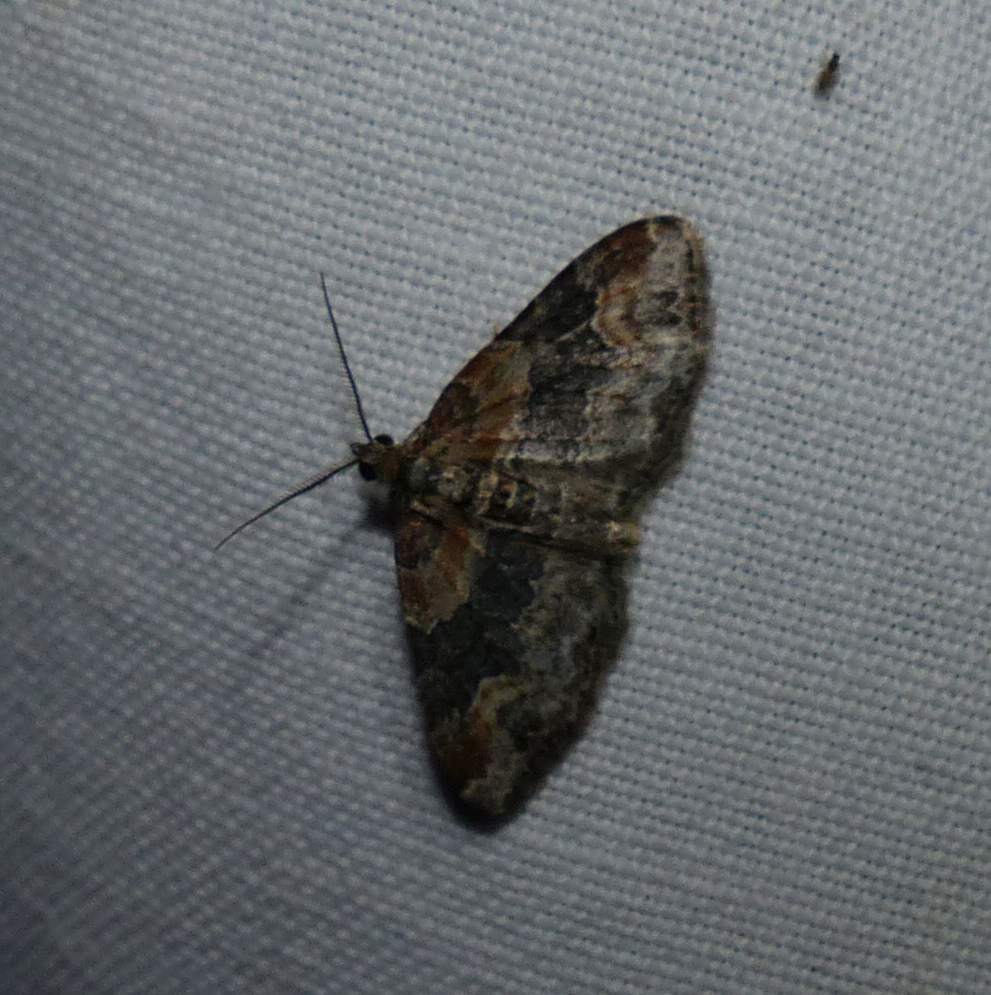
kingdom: Animalia
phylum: Arthropoda
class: Insecta
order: Lepidoptera
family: Geometridae
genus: Xanthorhoe
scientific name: Xanthorhoe ferrugata
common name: Dark-barred twin-spot carpet
